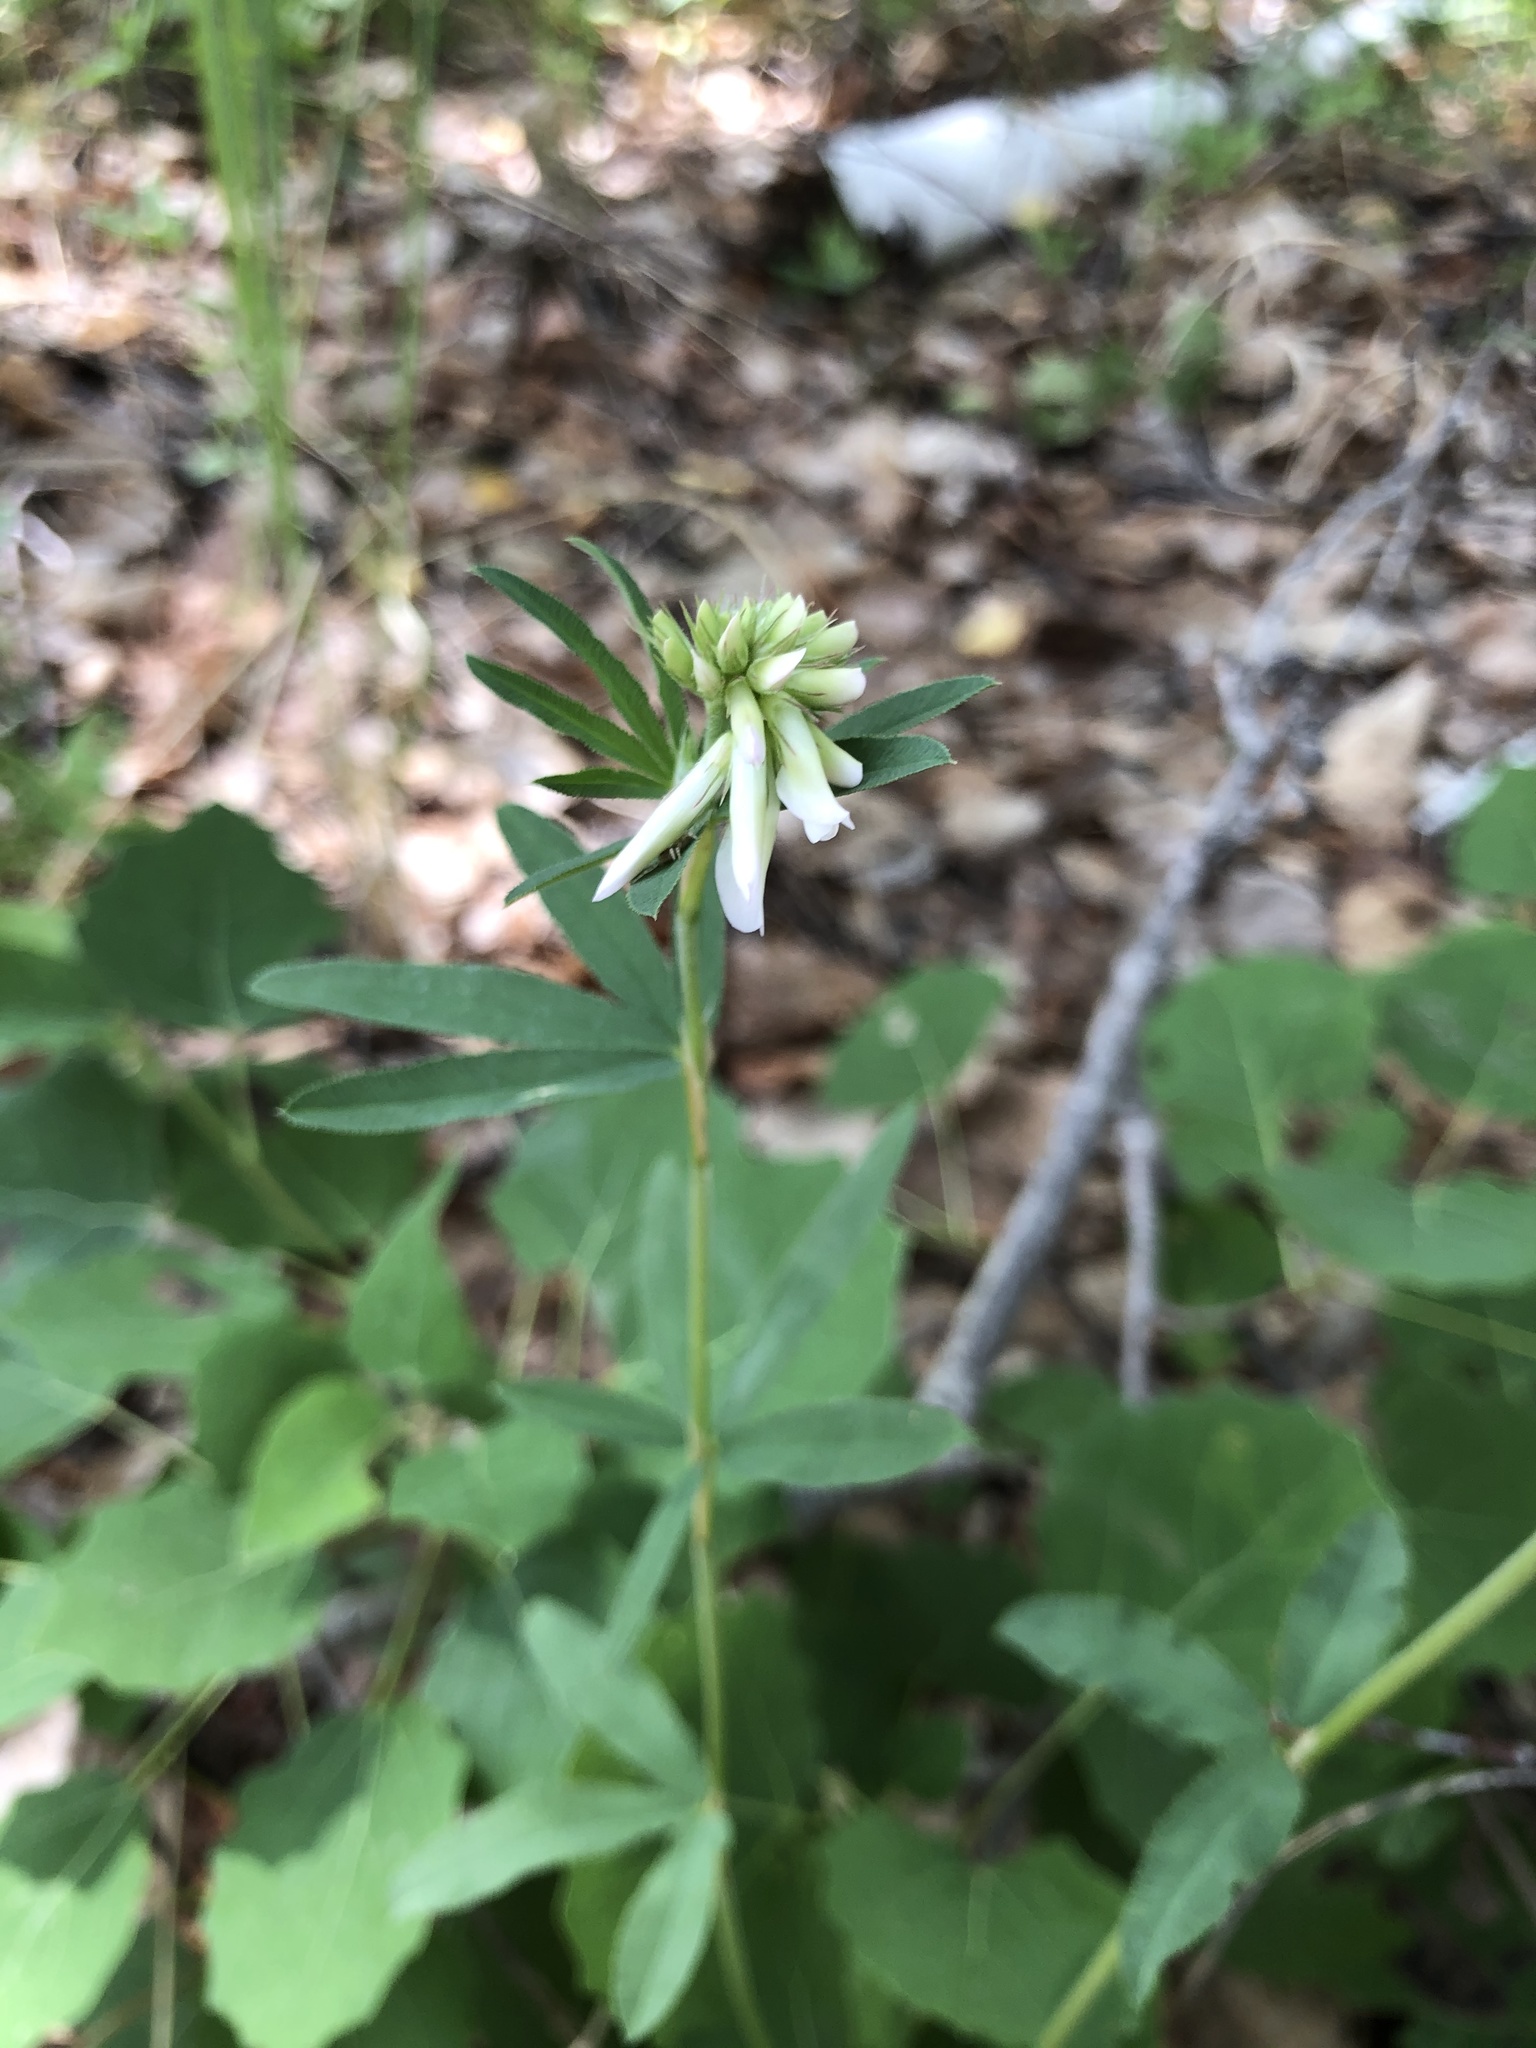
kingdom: Plantae
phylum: Tracheophyta
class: Magnoliopsida
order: Fabales
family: Fabaceae
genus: Trifolium
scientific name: Trifolium lupinaster
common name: Lupine clover
